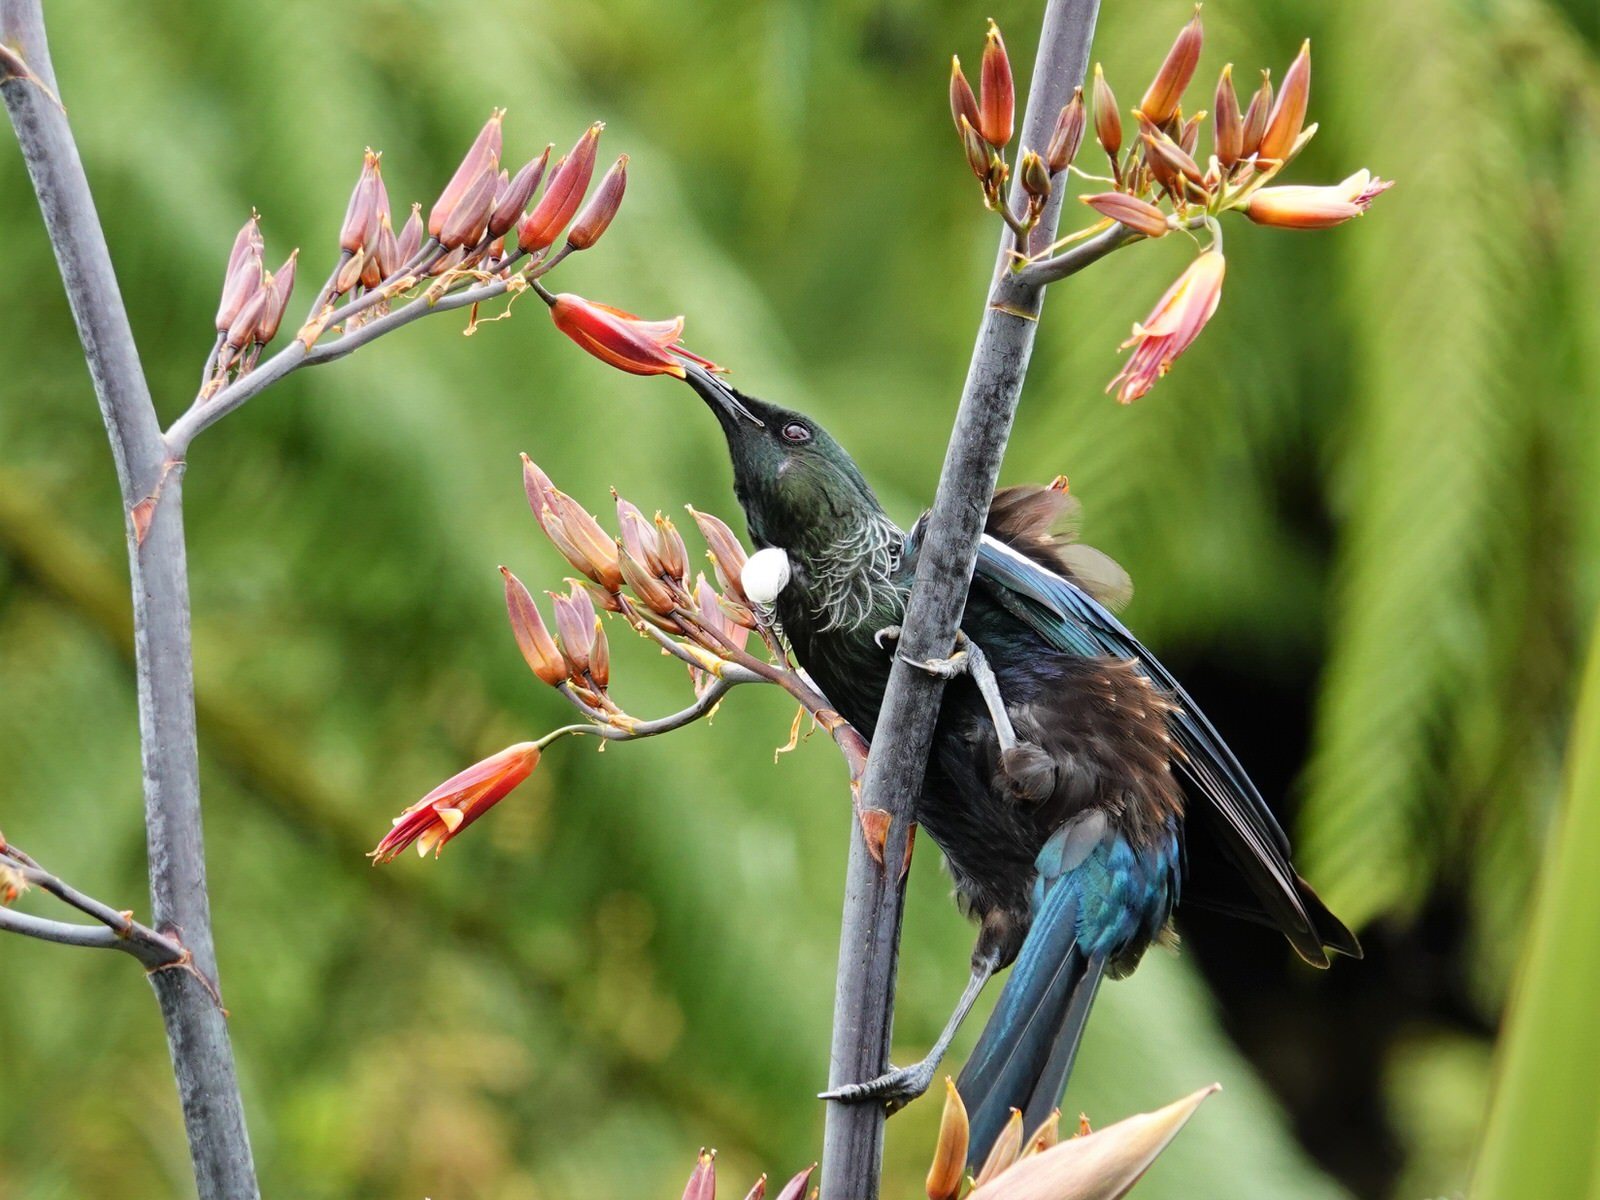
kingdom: Animalia
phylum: Chordata
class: Aves
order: Passeriformes
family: Meliphagidae
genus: Prosthemadera
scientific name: Prosthemadera novaeseelandiae
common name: Tui
